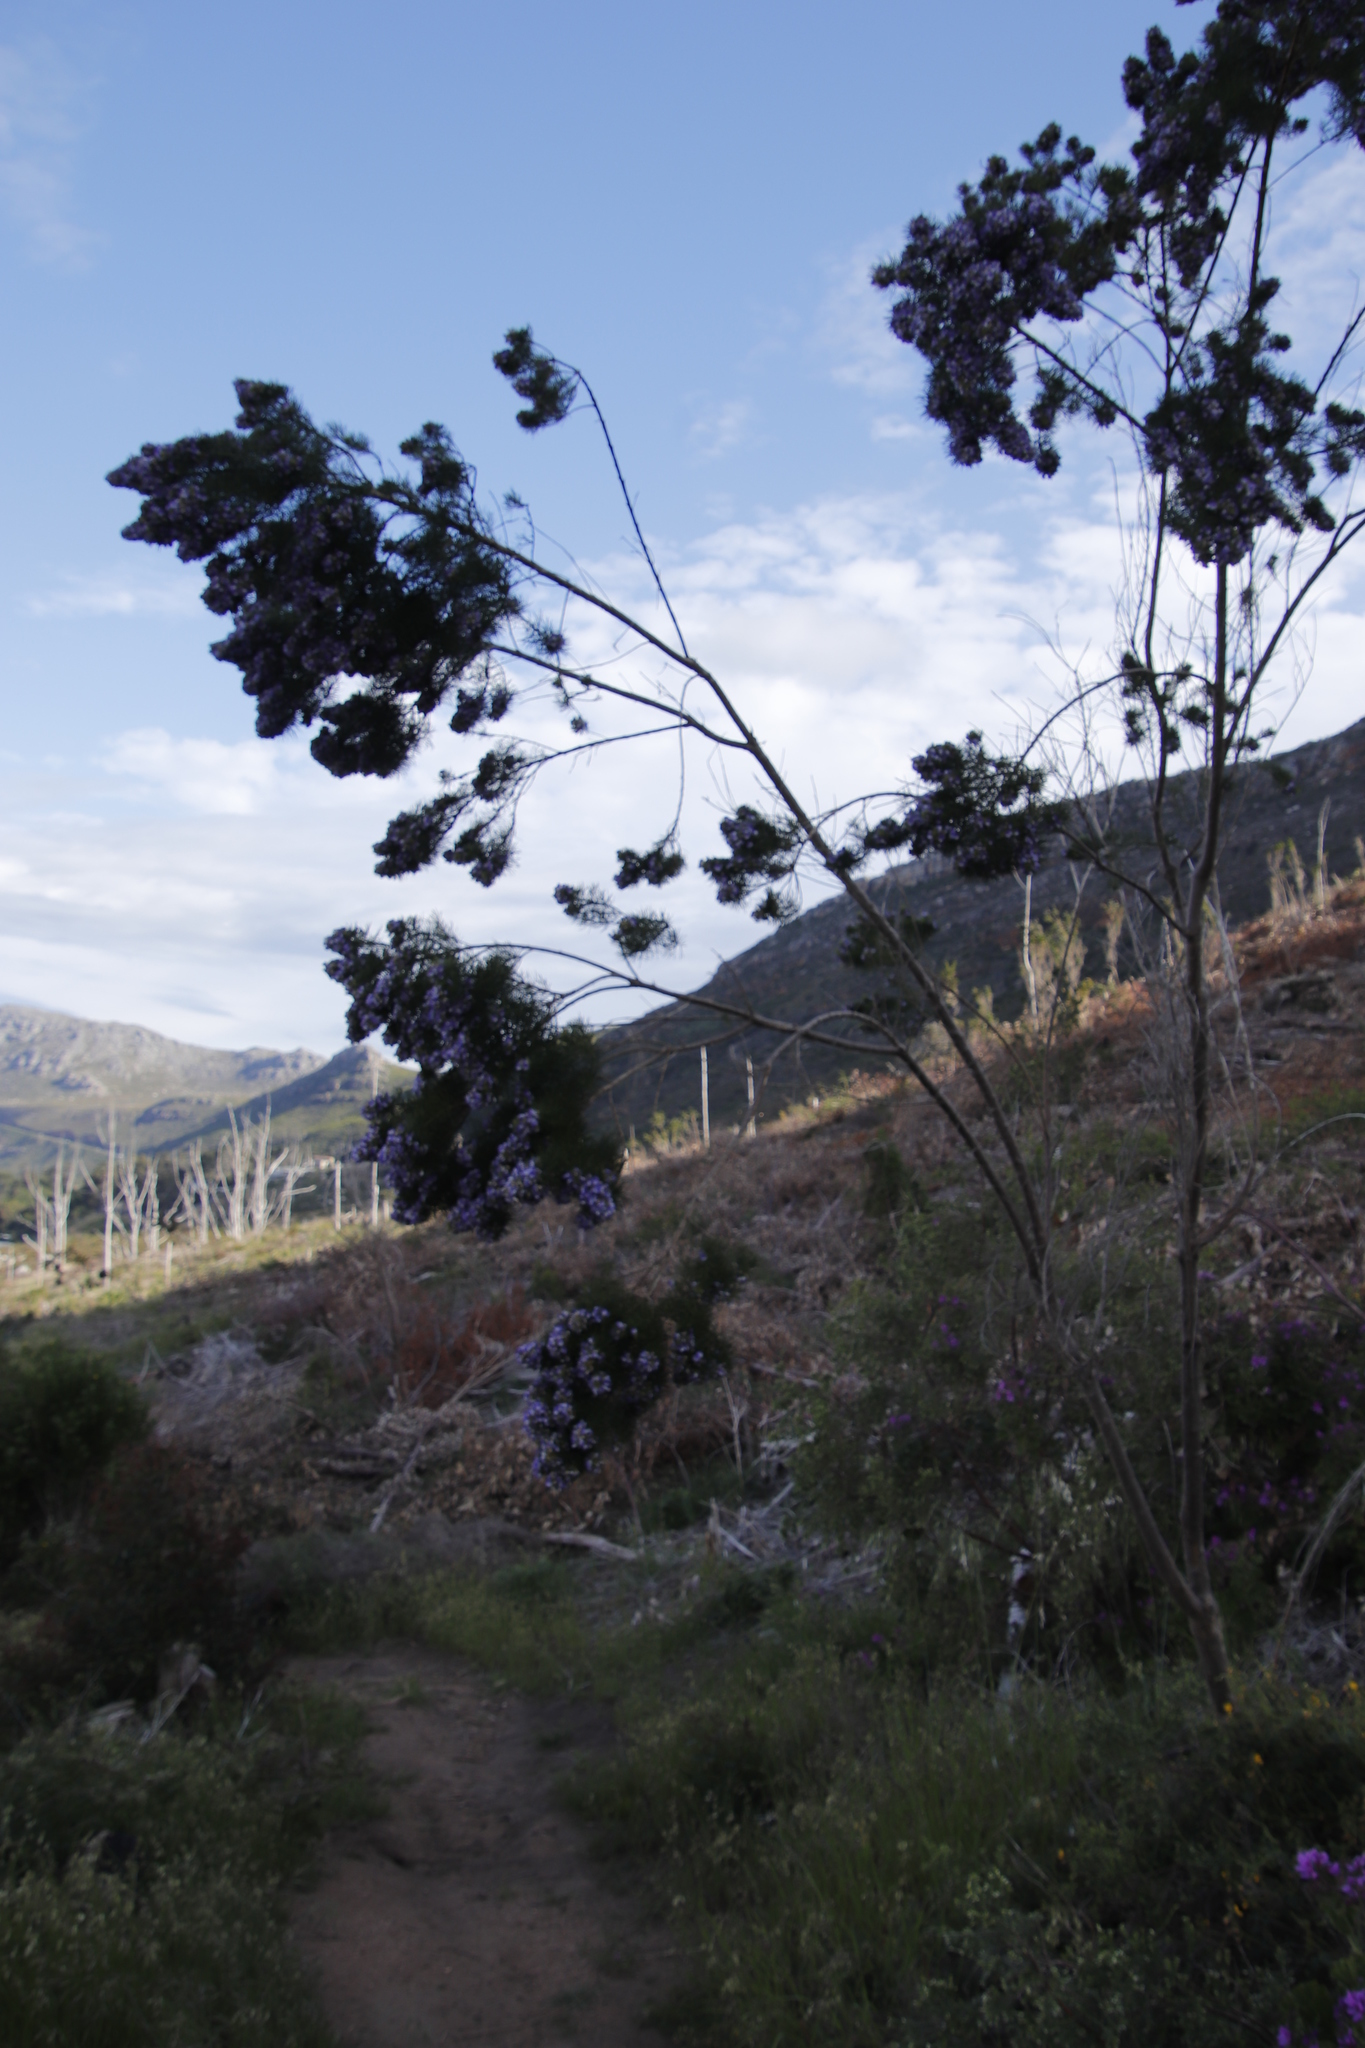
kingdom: Plantae
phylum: Tracheophyta
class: Magnoliopsida
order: Fabales
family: Fabaceae
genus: Psoralea
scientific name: Psoralea pinnata
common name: African scurfpea
